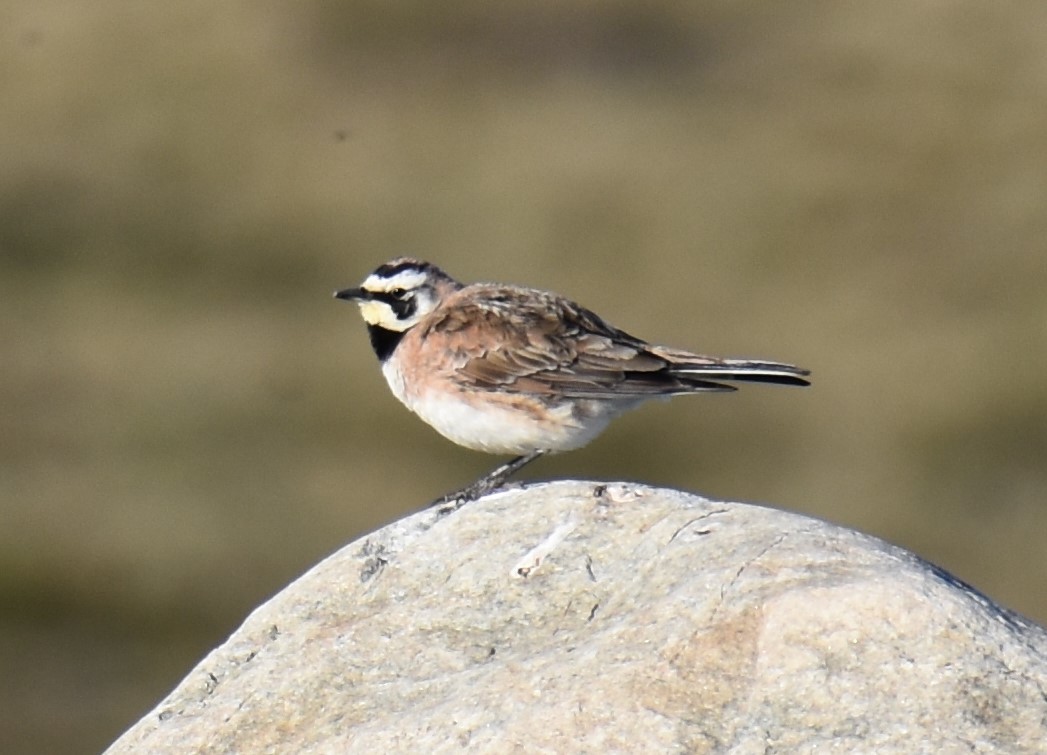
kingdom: Animalia
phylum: Chordata
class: Aves
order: Passeriformes
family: Alaudidae
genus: Eremophila
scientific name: Eremophila alpestris
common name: Horned lark
